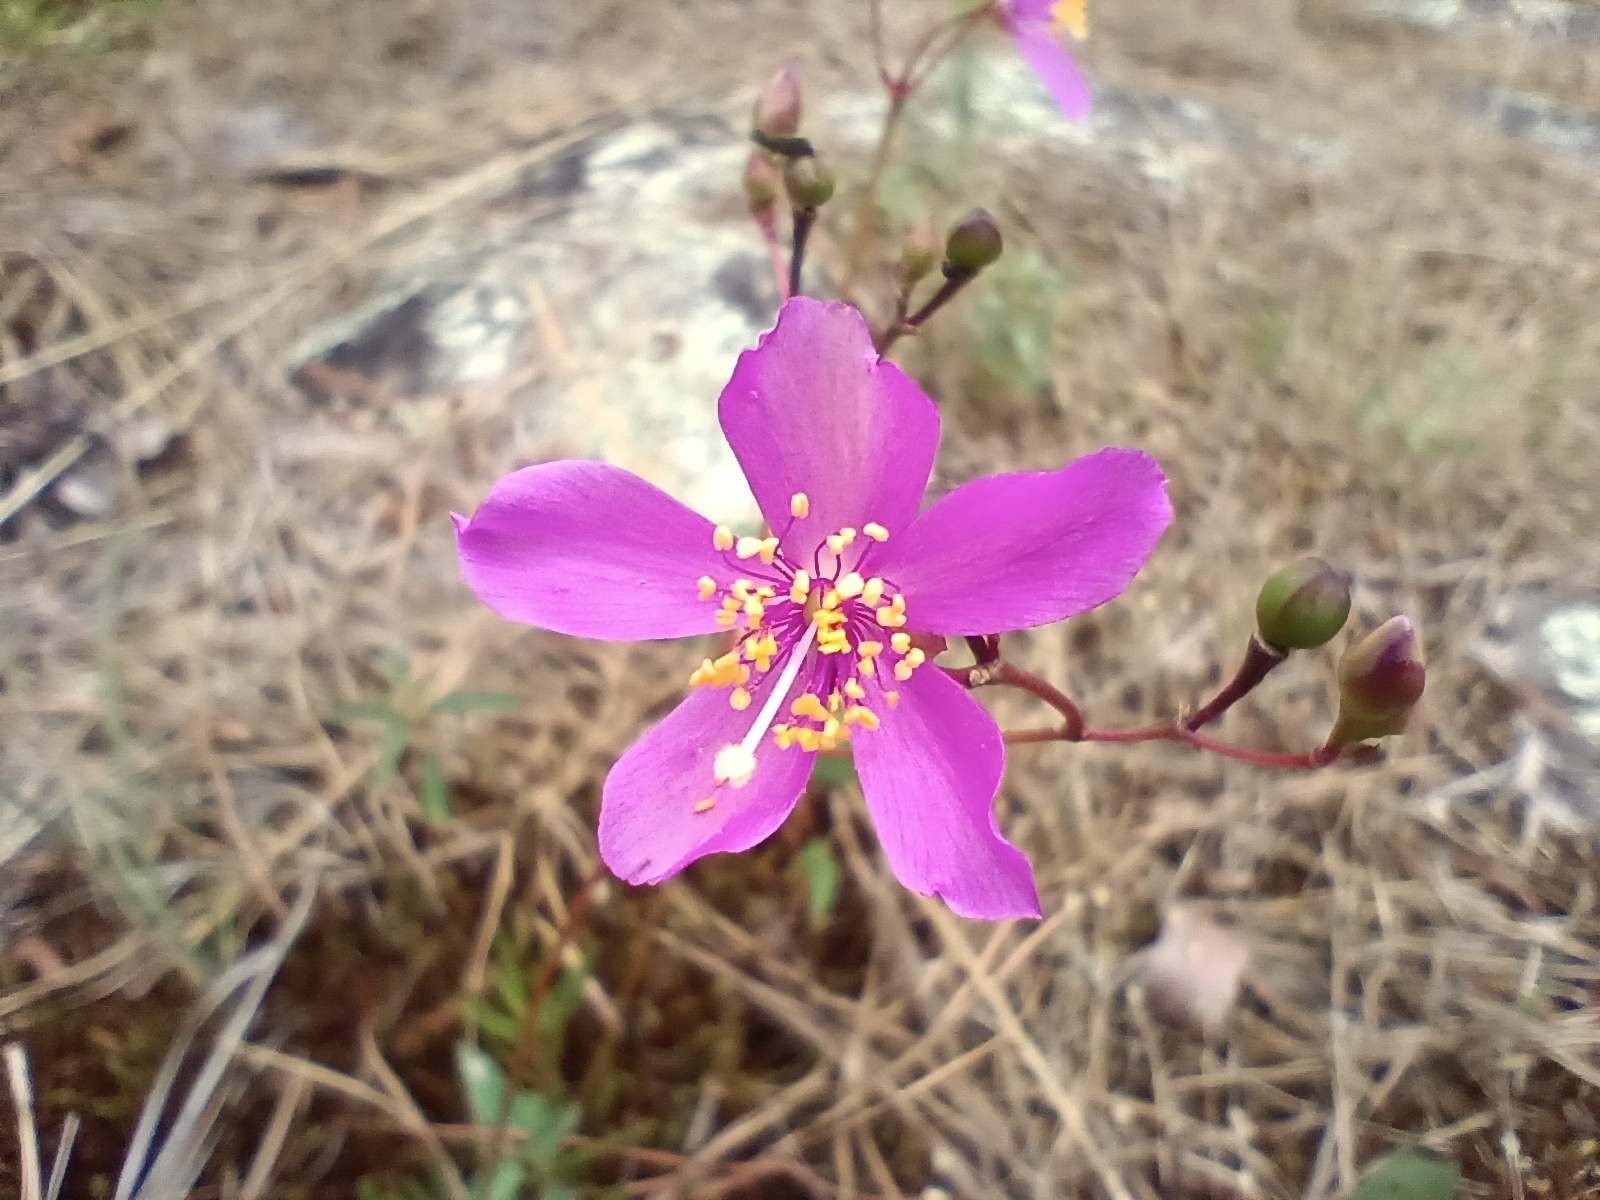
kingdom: Plantae
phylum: Tracheophyta
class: Magnoliopsida
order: Caryophyllales
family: Montiaceae
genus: Phemeranthus
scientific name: Phemeranthus mengesii
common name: Menges' fameflower
